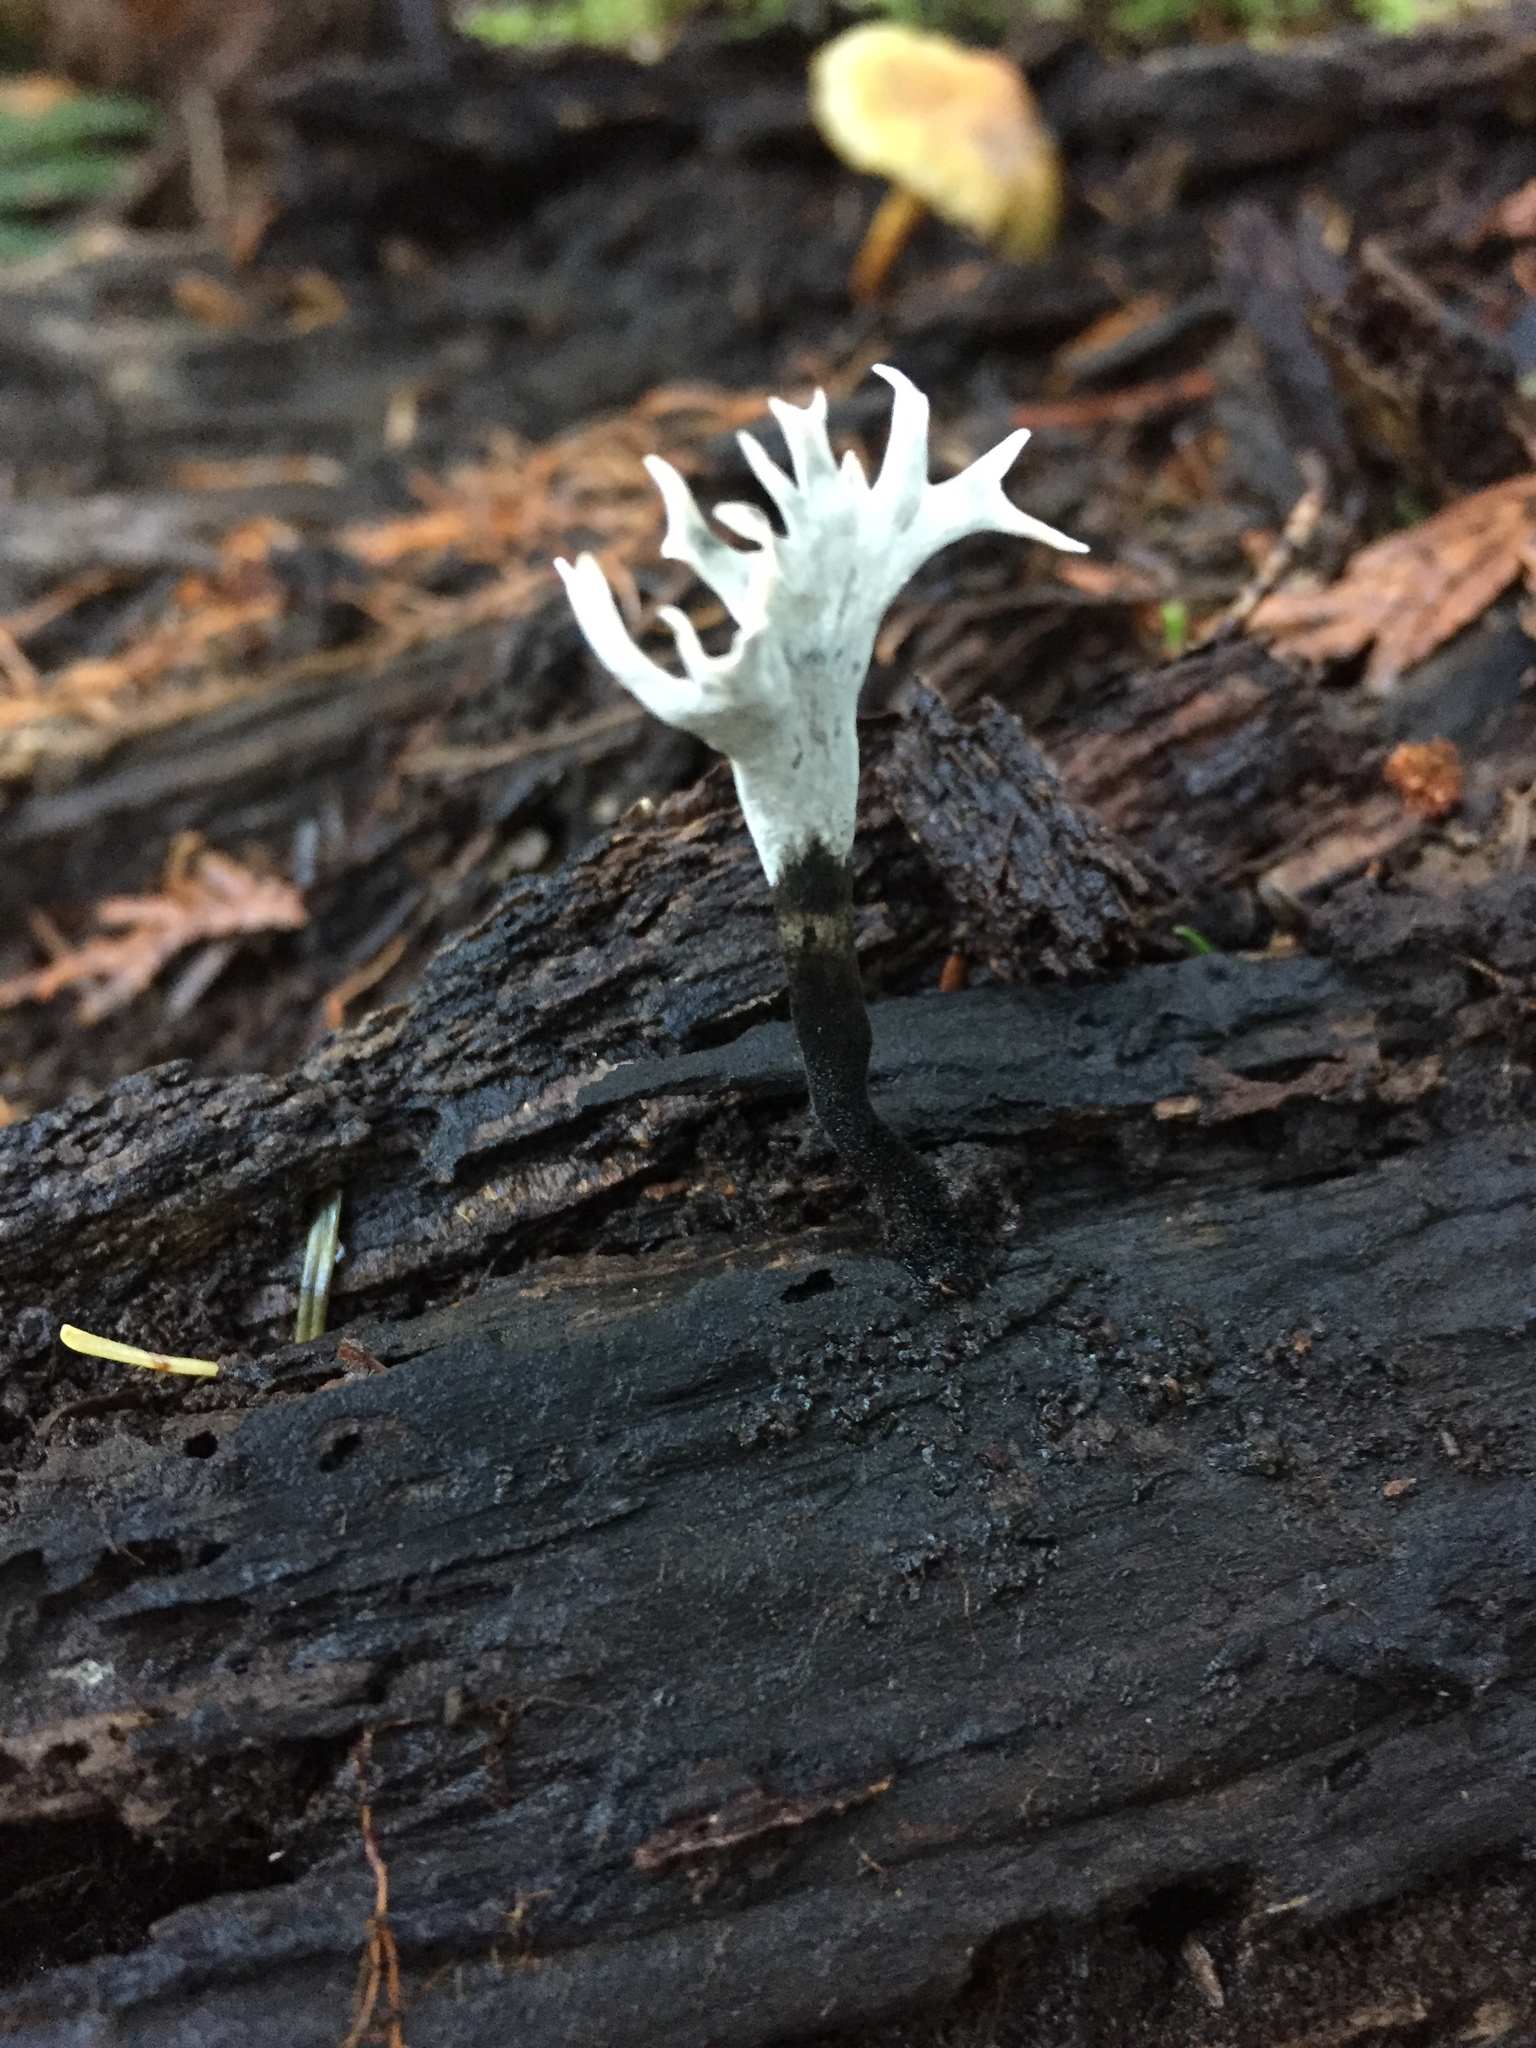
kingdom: Fungi
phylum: Ascomycota
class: Sordariomycetes
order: Xylariales
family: Xylariaceae
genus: Xylaria
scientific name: Xylaria hypoxylon
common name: Candle-snuff fungus
